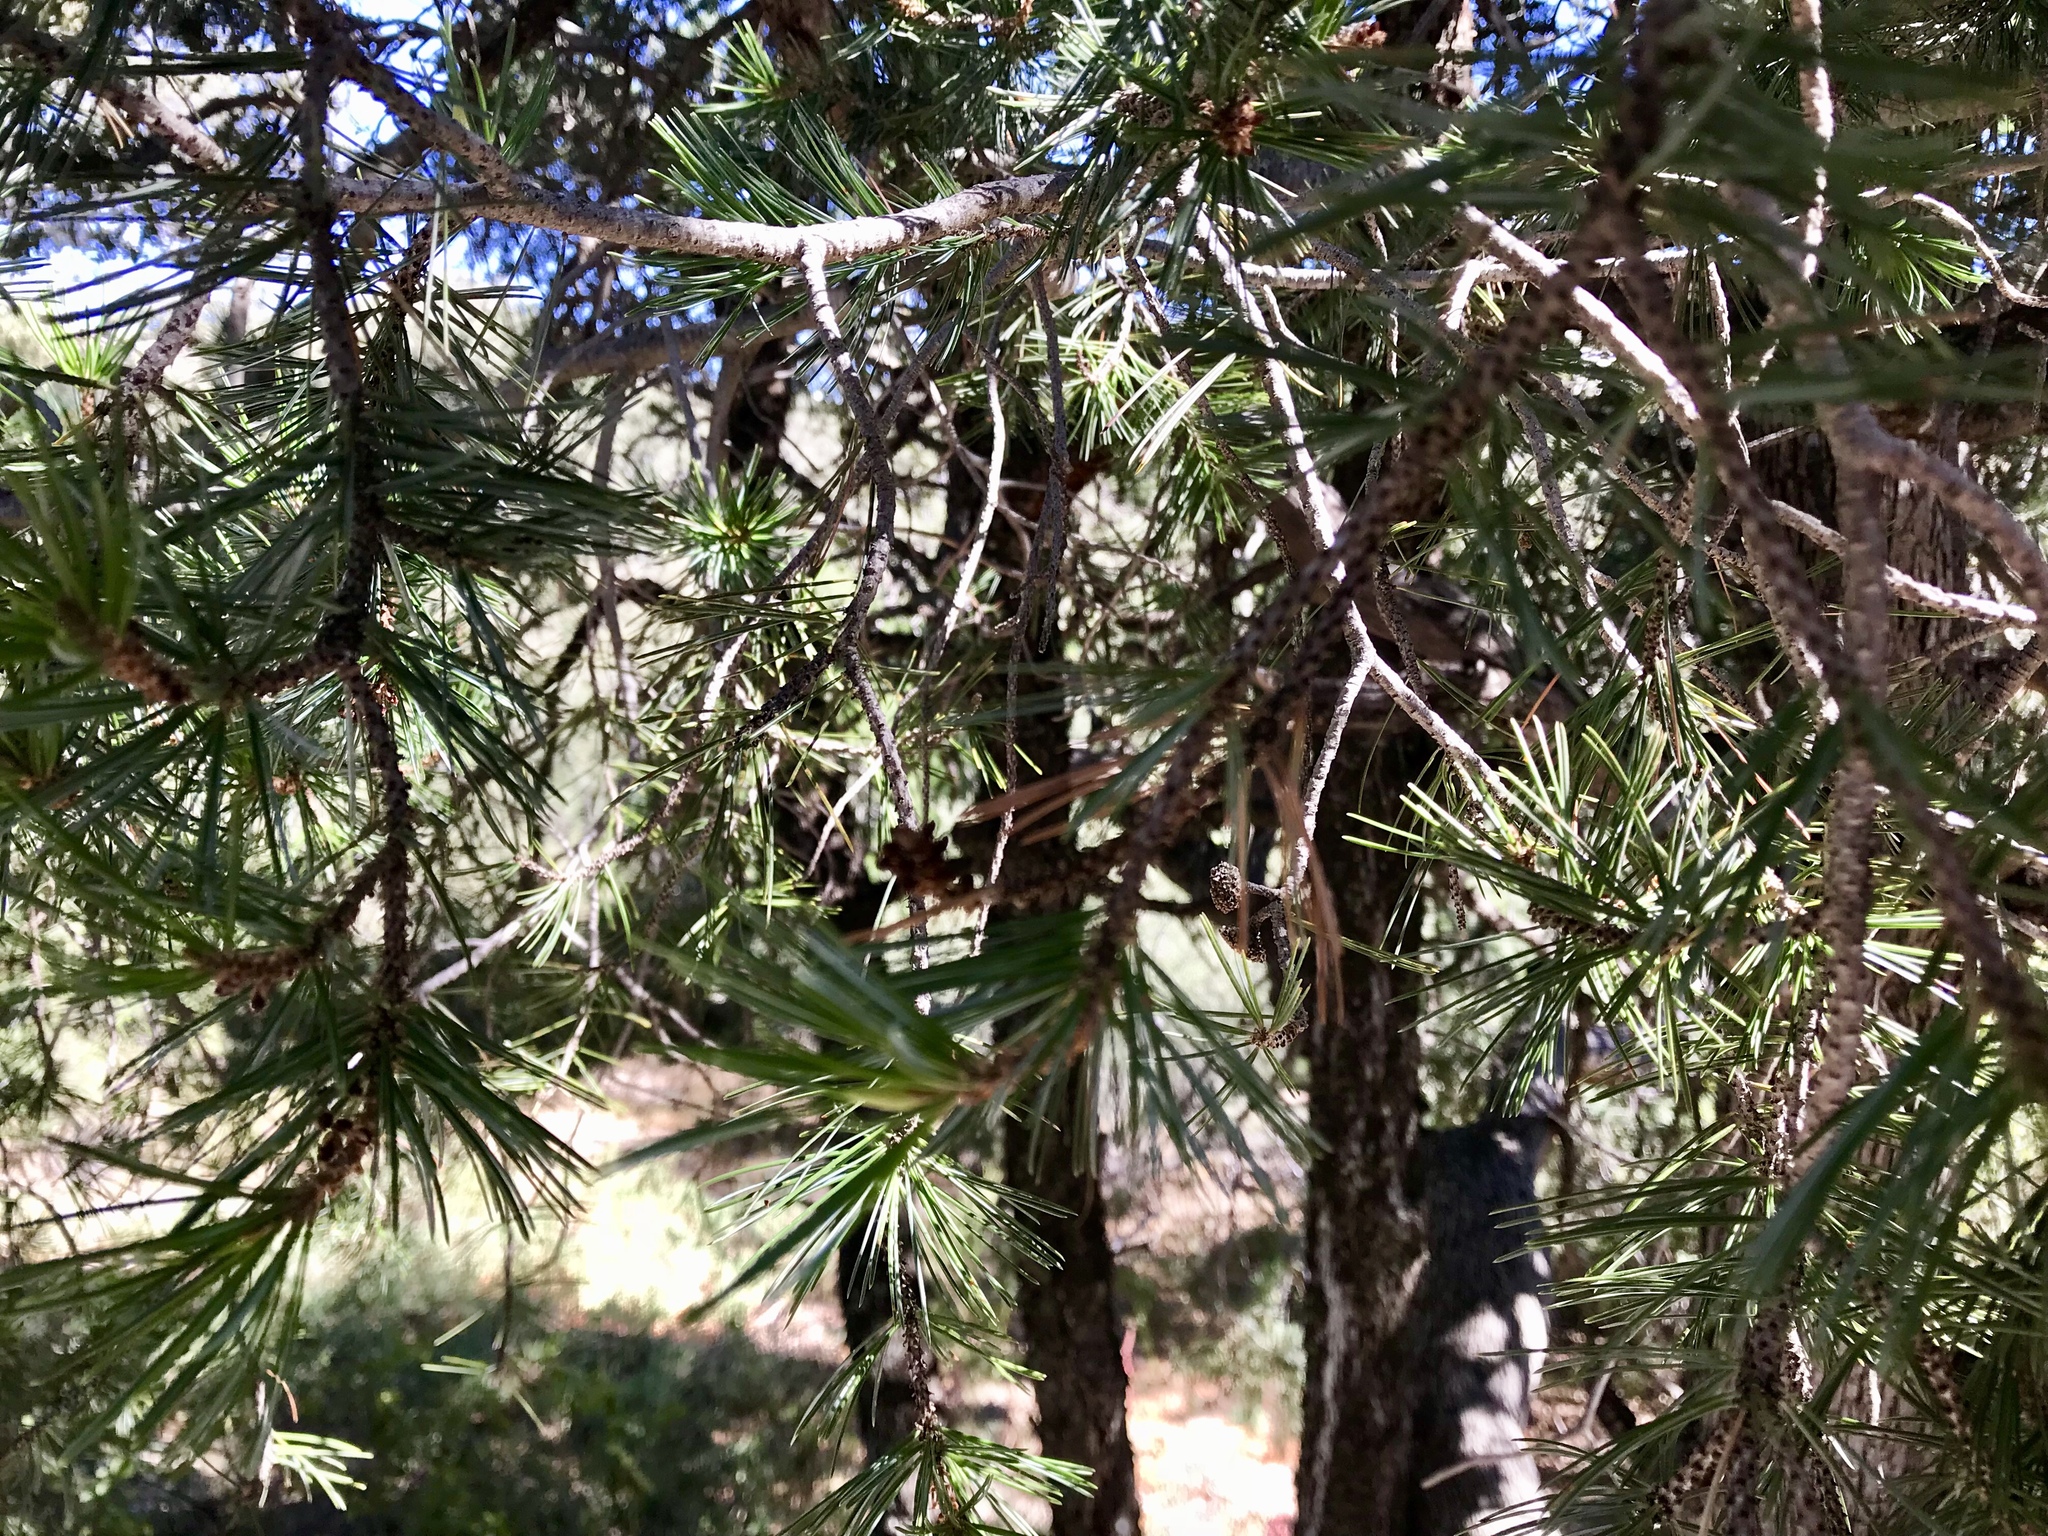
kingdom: Plantae
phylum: Tracheophyta
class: Pinopsida
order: Pinales
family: Pinaceae
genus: Pinus
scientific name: Pinus discolor
